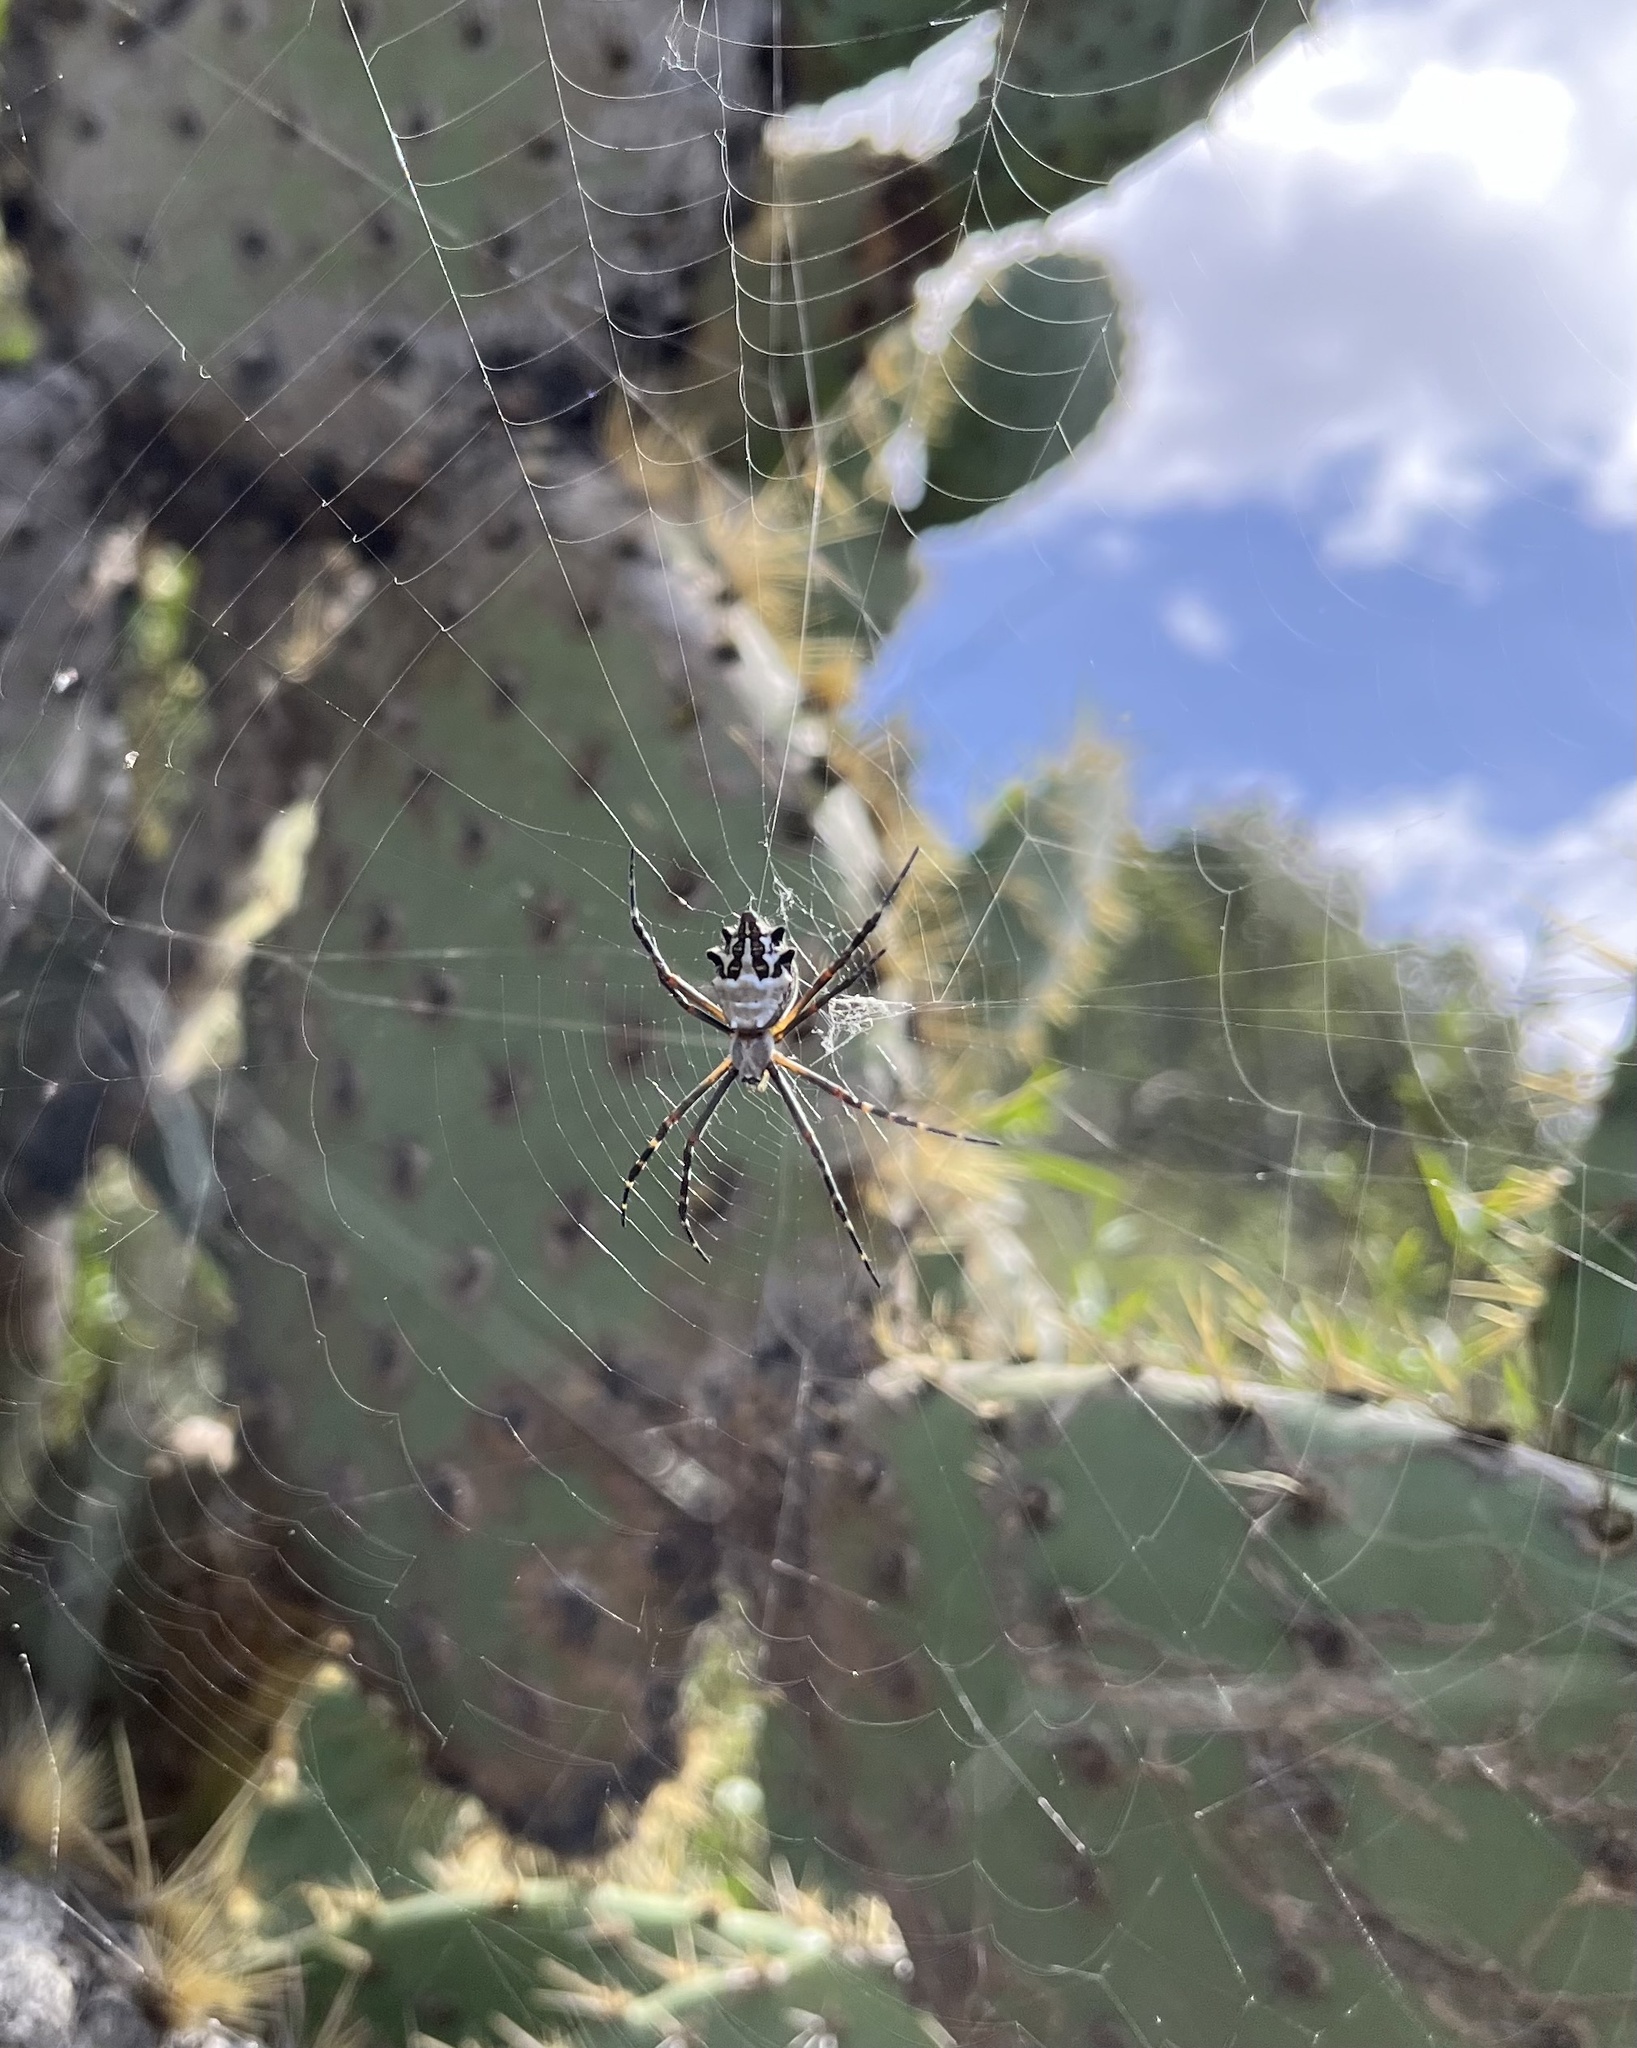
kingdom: Animalia
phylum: Arthropoda
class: Arachnida
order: Araneae
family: Araneidae
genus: Argiope
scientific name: Argiope argentata
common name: Orb weavers
